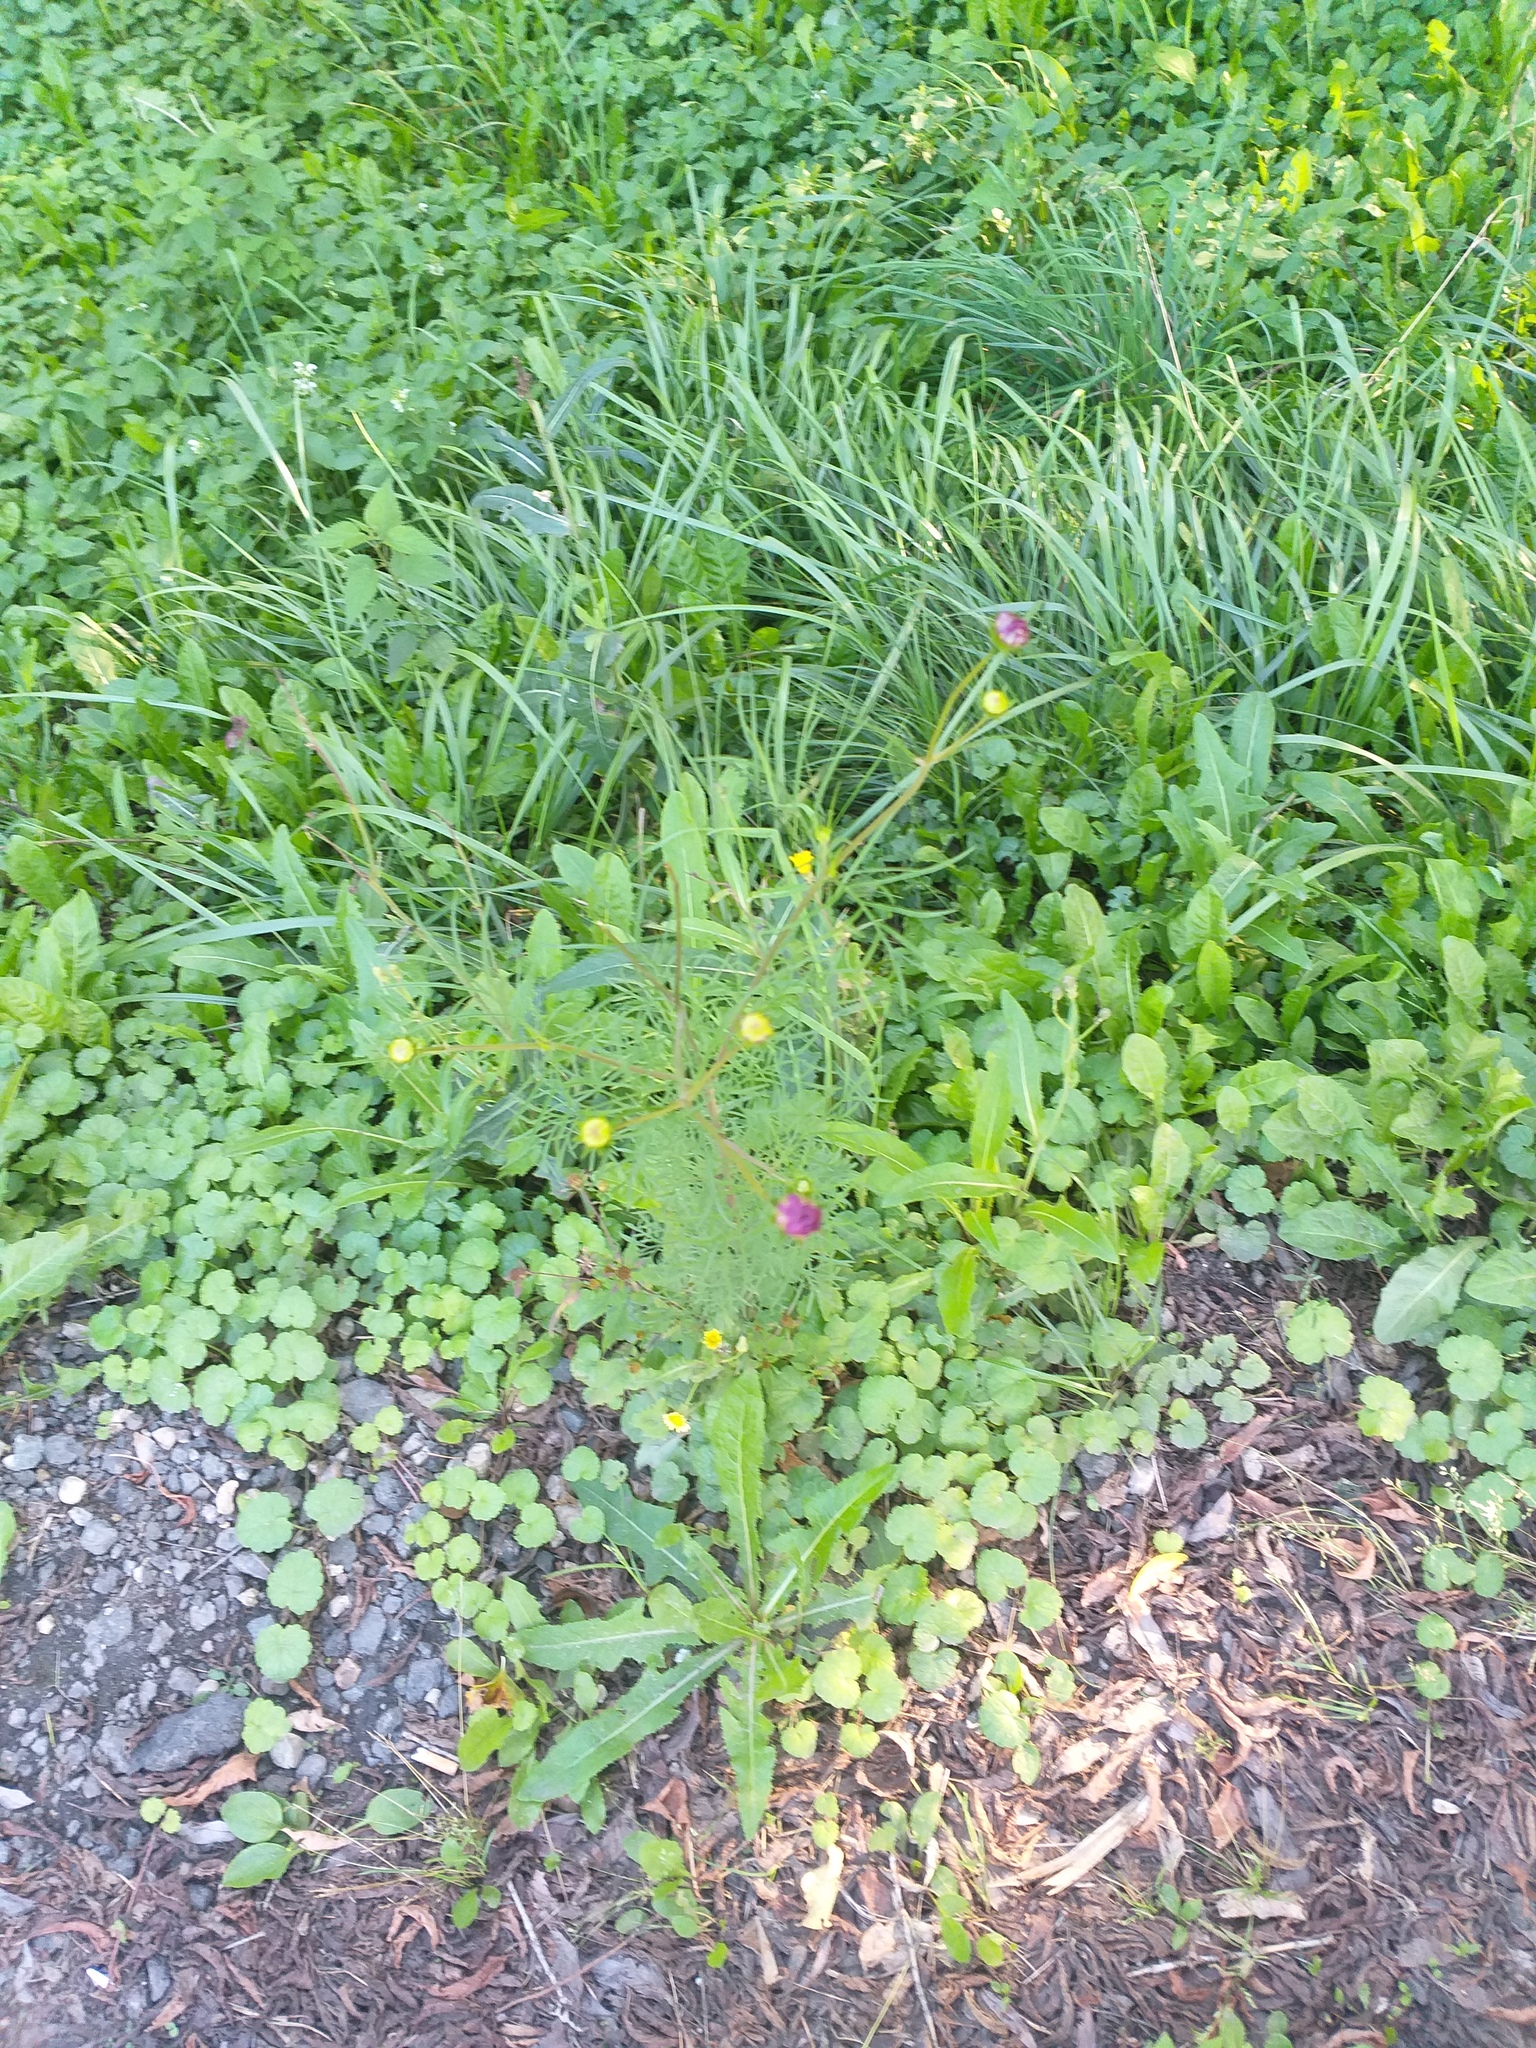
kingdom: Plantae
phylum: Tracheophyta
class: Magnoliopsida
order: Asterales
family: Asteraceae
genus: Cosmos
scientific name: Cosmos bipinnatus
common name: Garden cosmos
